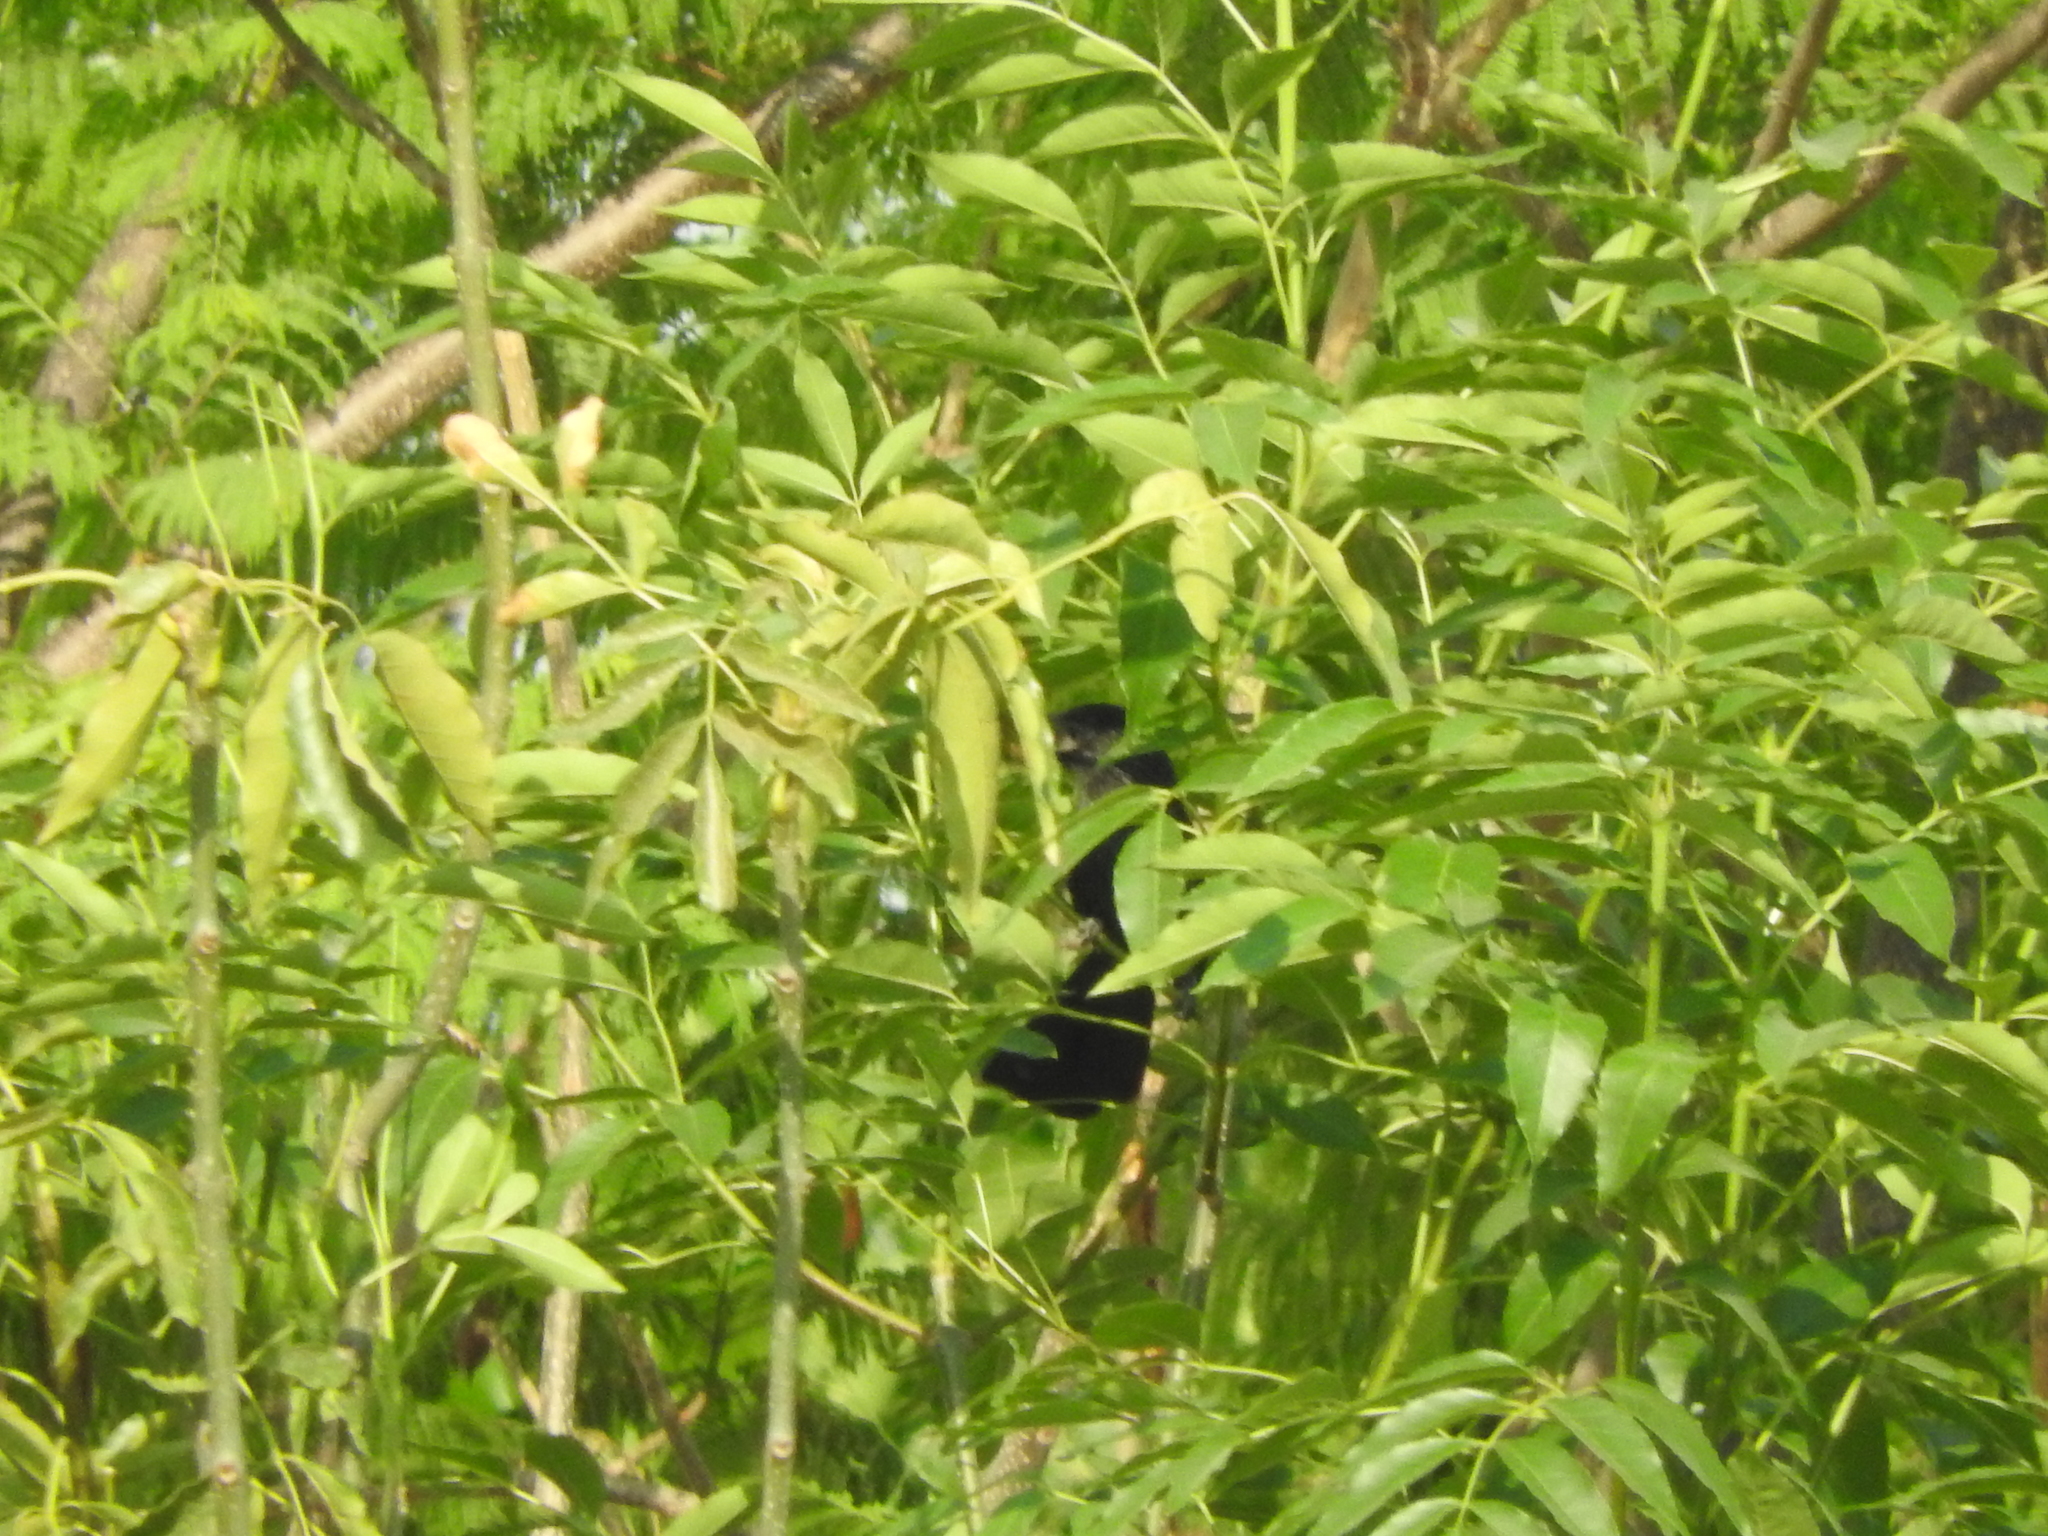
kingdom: Animalia
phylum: Chordata
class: Aves
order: Cuculiformes
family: Cuculidae
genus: Crotophaga
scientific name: Crotophaga sulcirostris
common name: Groove-billed ani
